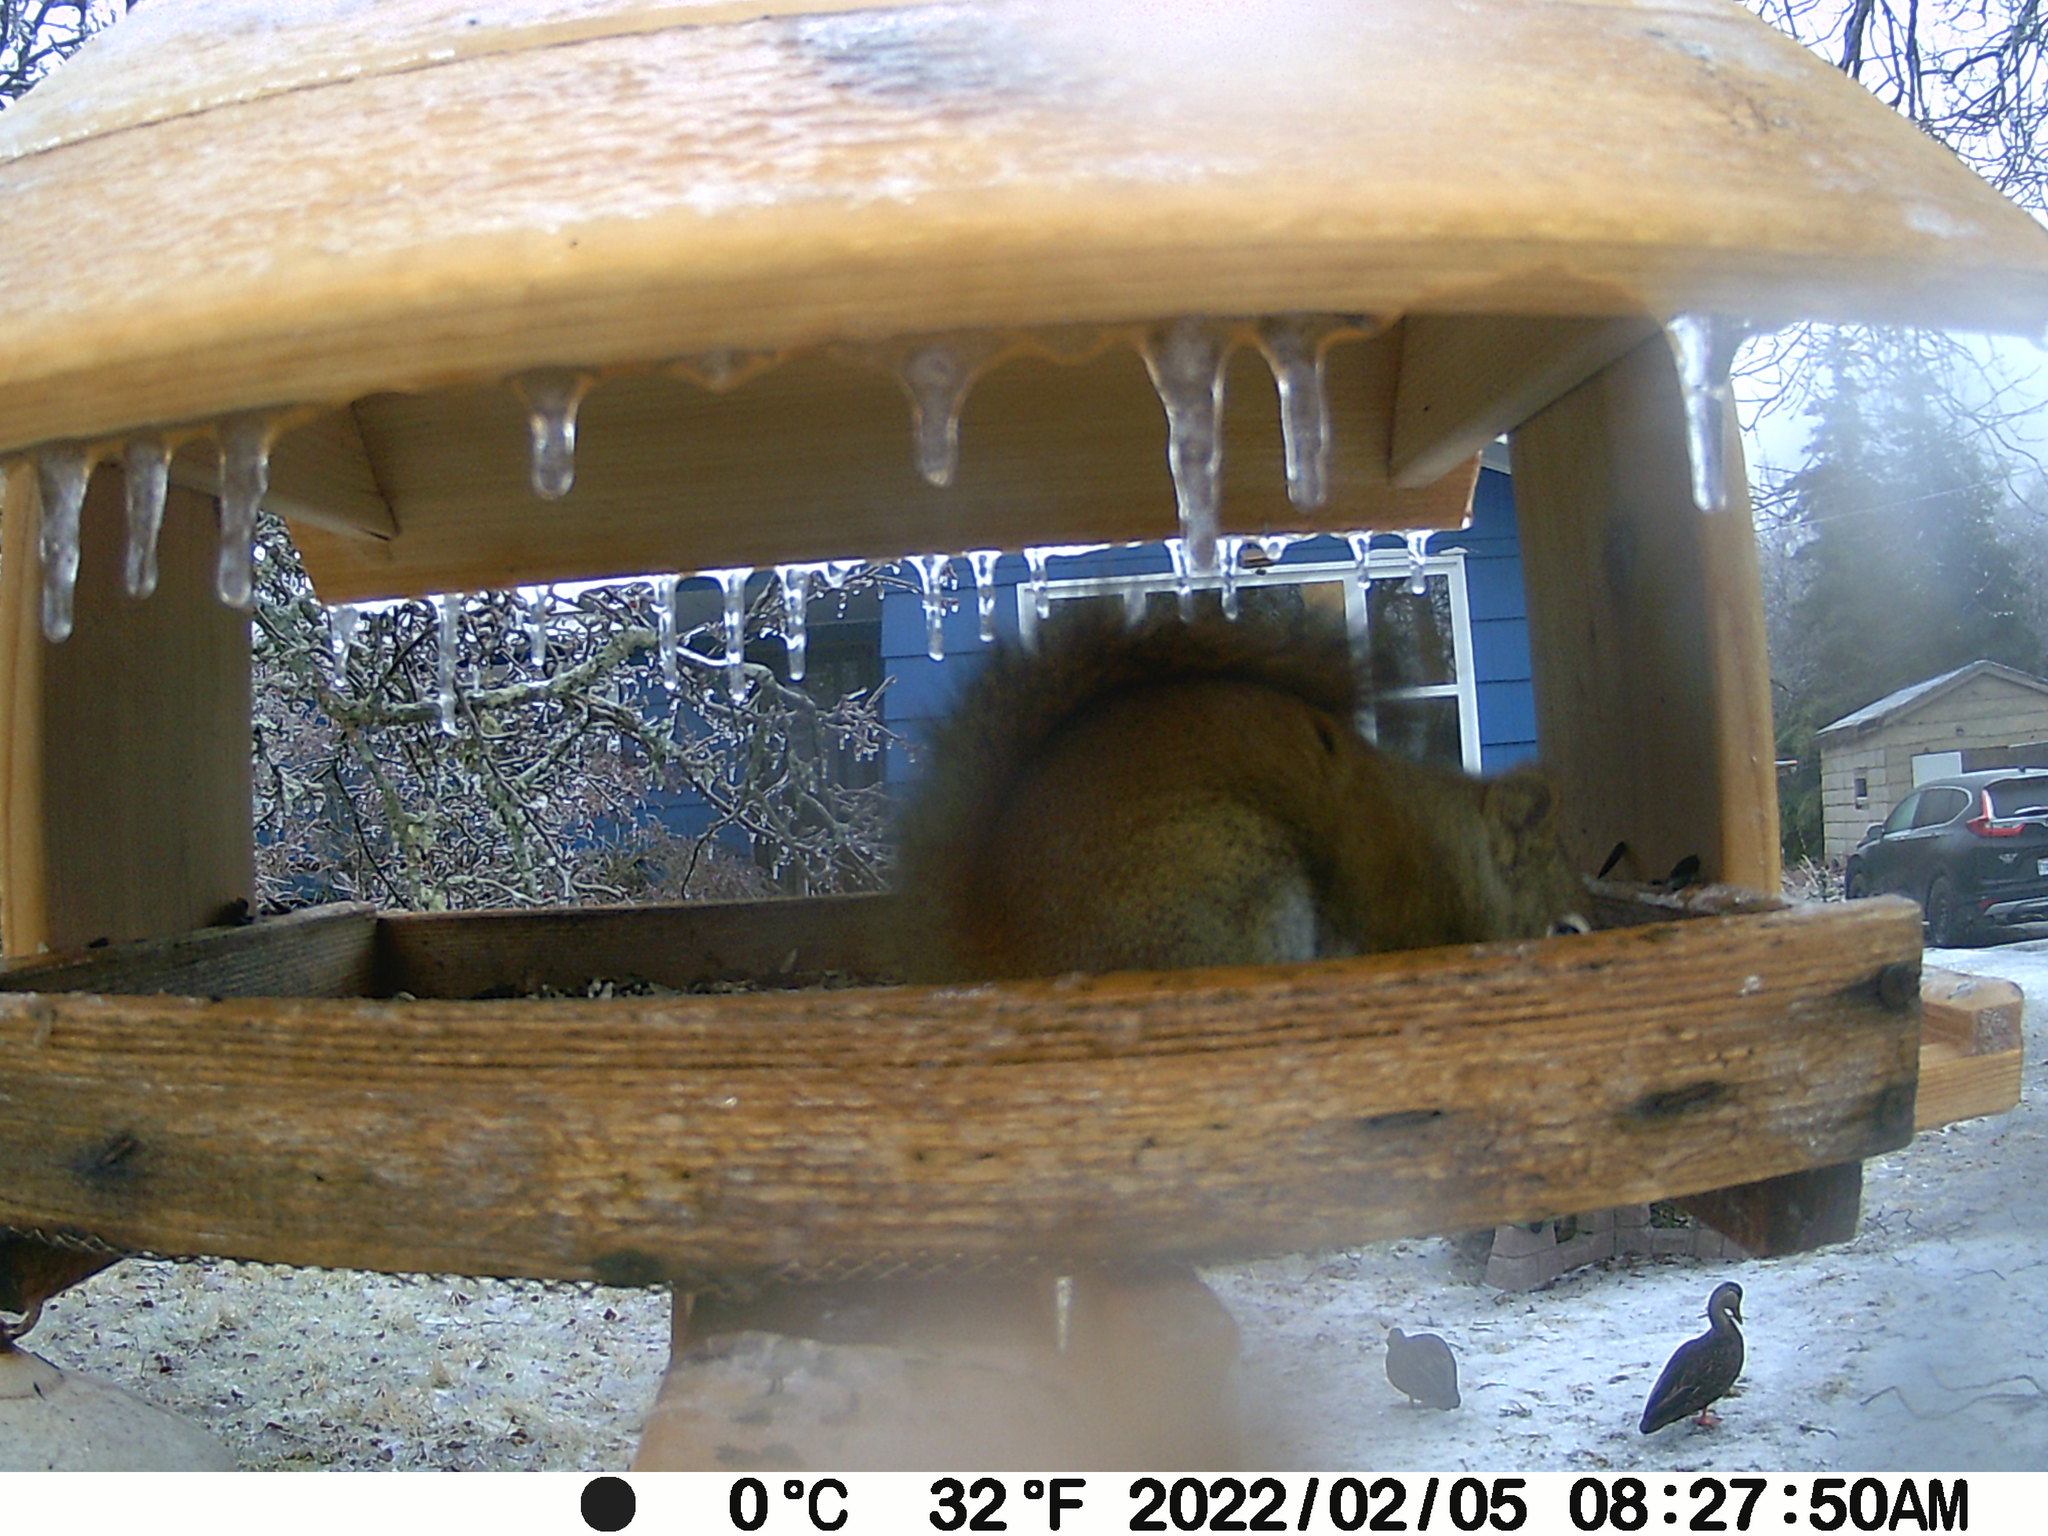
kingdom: Animalia
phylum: Chordata
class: Aves
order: Anseriformes
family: Anatidae
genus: Anas
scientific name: Anas rubripes
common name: American black duck
